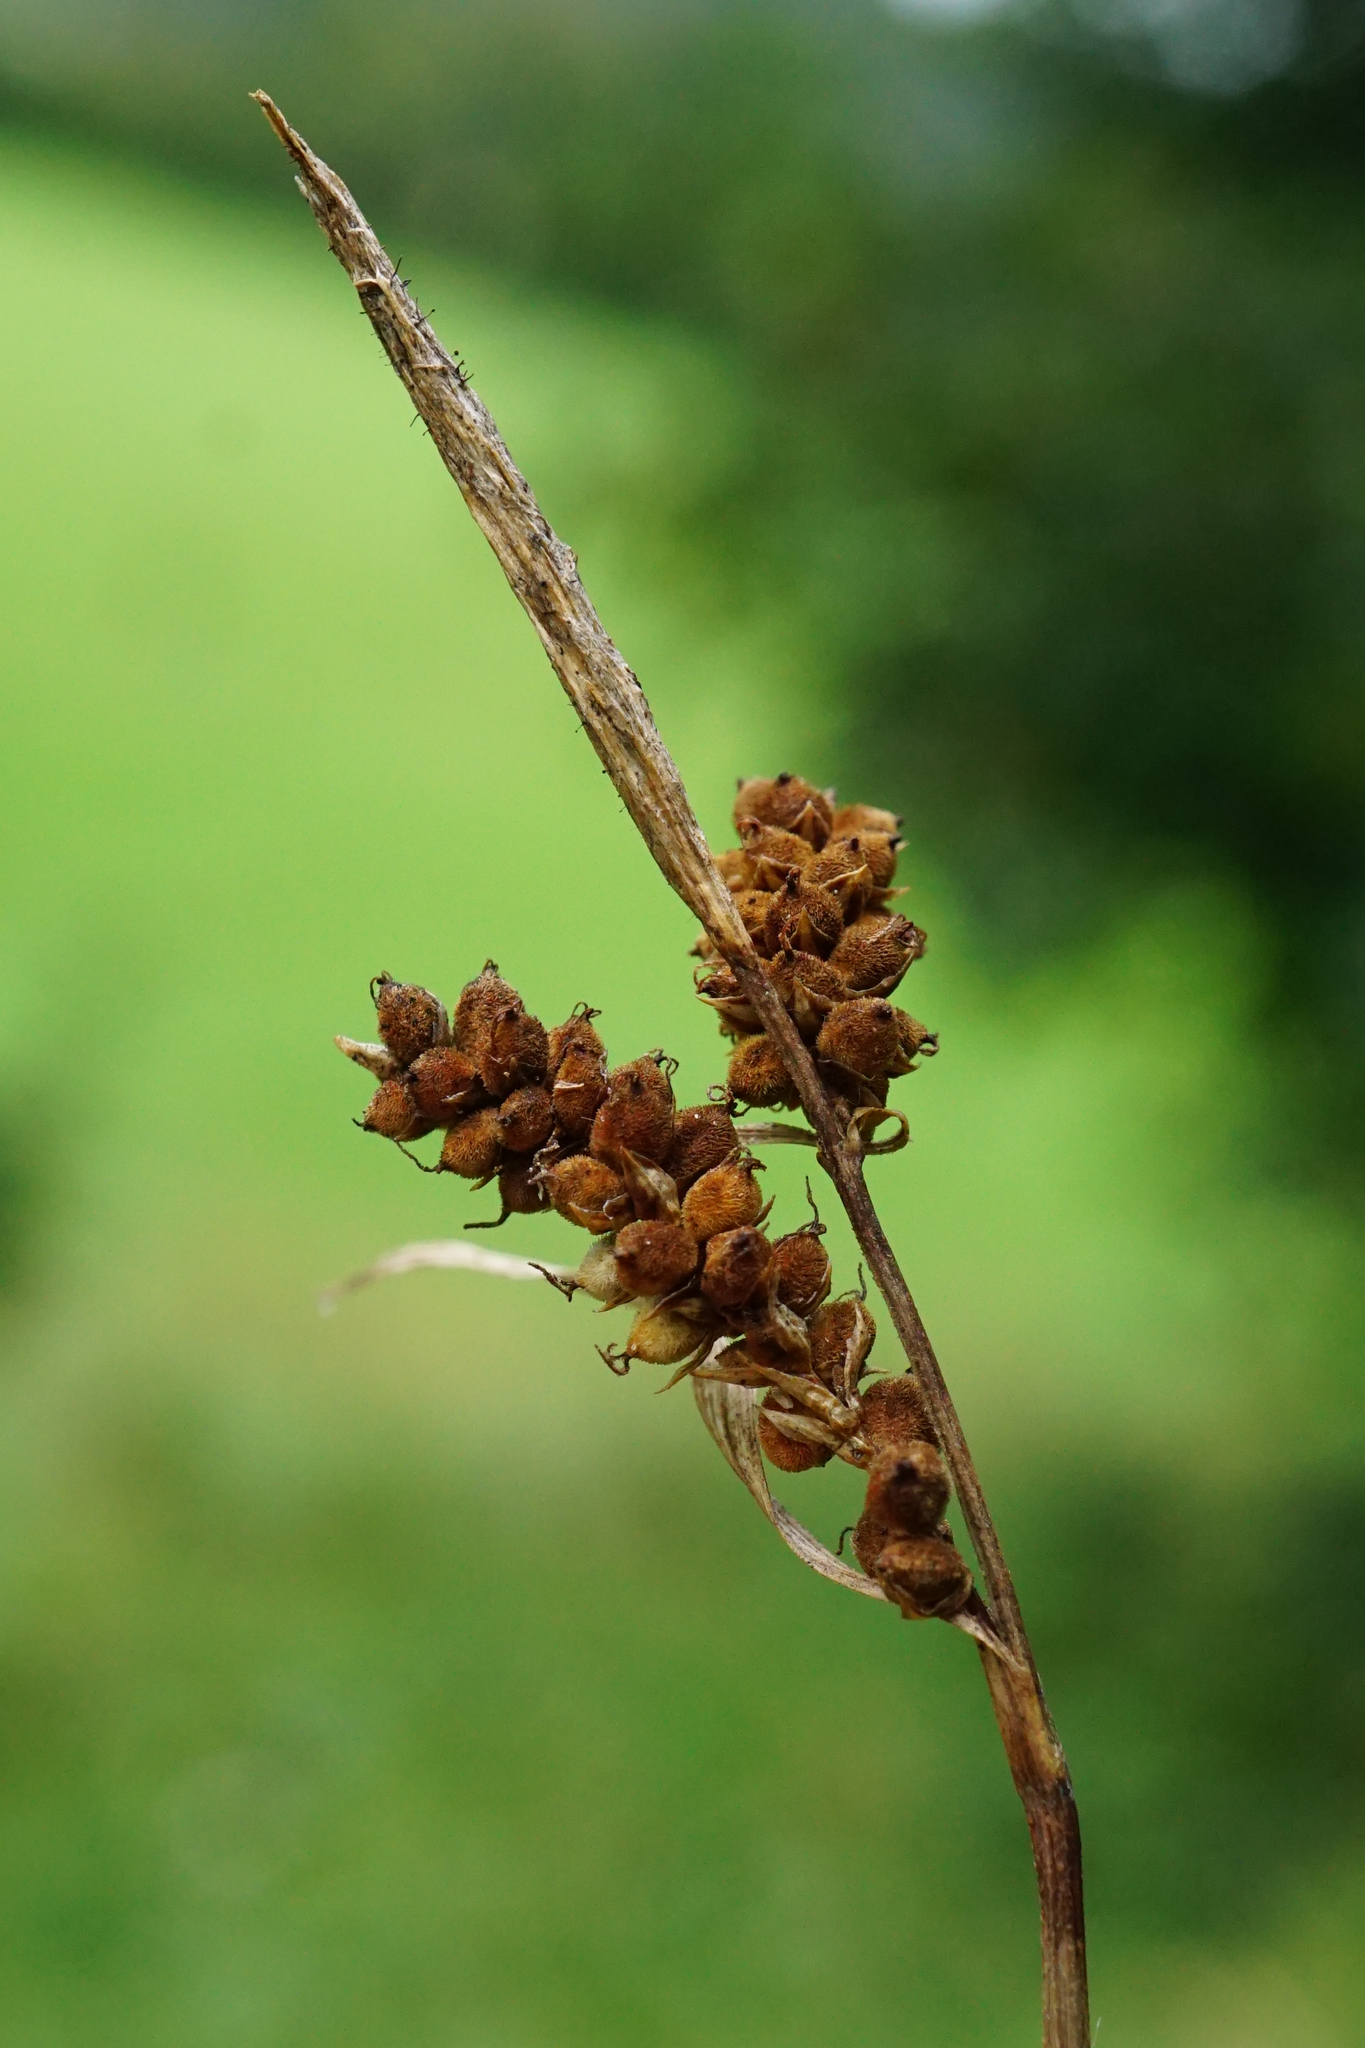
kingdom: Plantae
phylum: Tracheophyta
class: Liliopsida
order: Poales
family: Cyperaceae
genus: Carex
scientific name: Carex tomentosa
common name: Downy-fruited sedge
